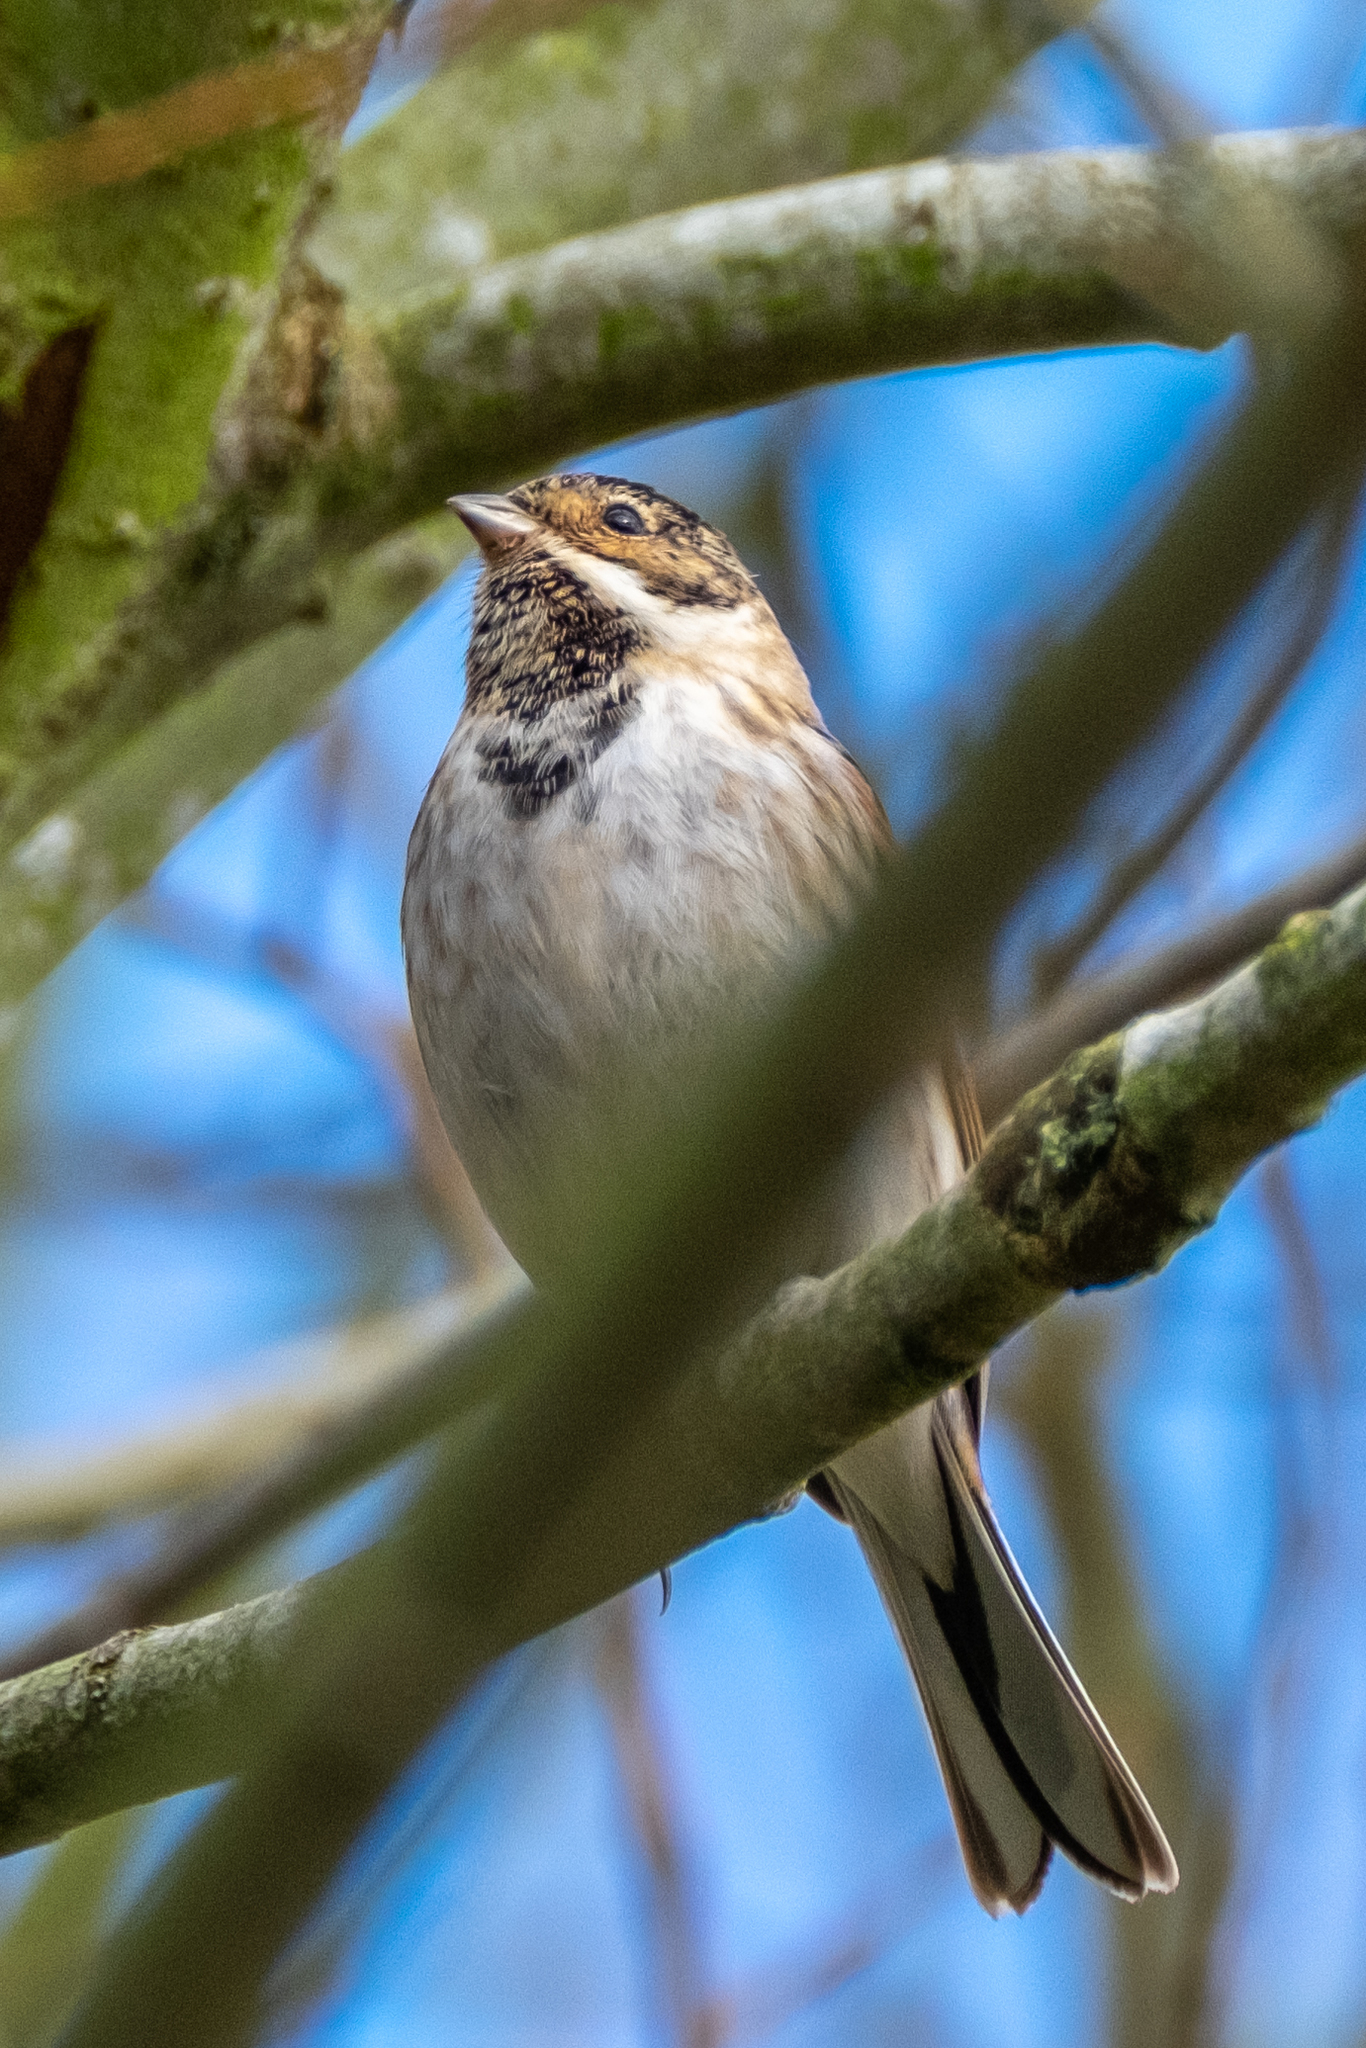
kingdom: Animalia
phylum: Chordata
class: Aves
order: Passeriformes
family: Emberizidae
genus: Emberiza
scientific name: Emberiza schoeniclus
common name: Reed bunting
